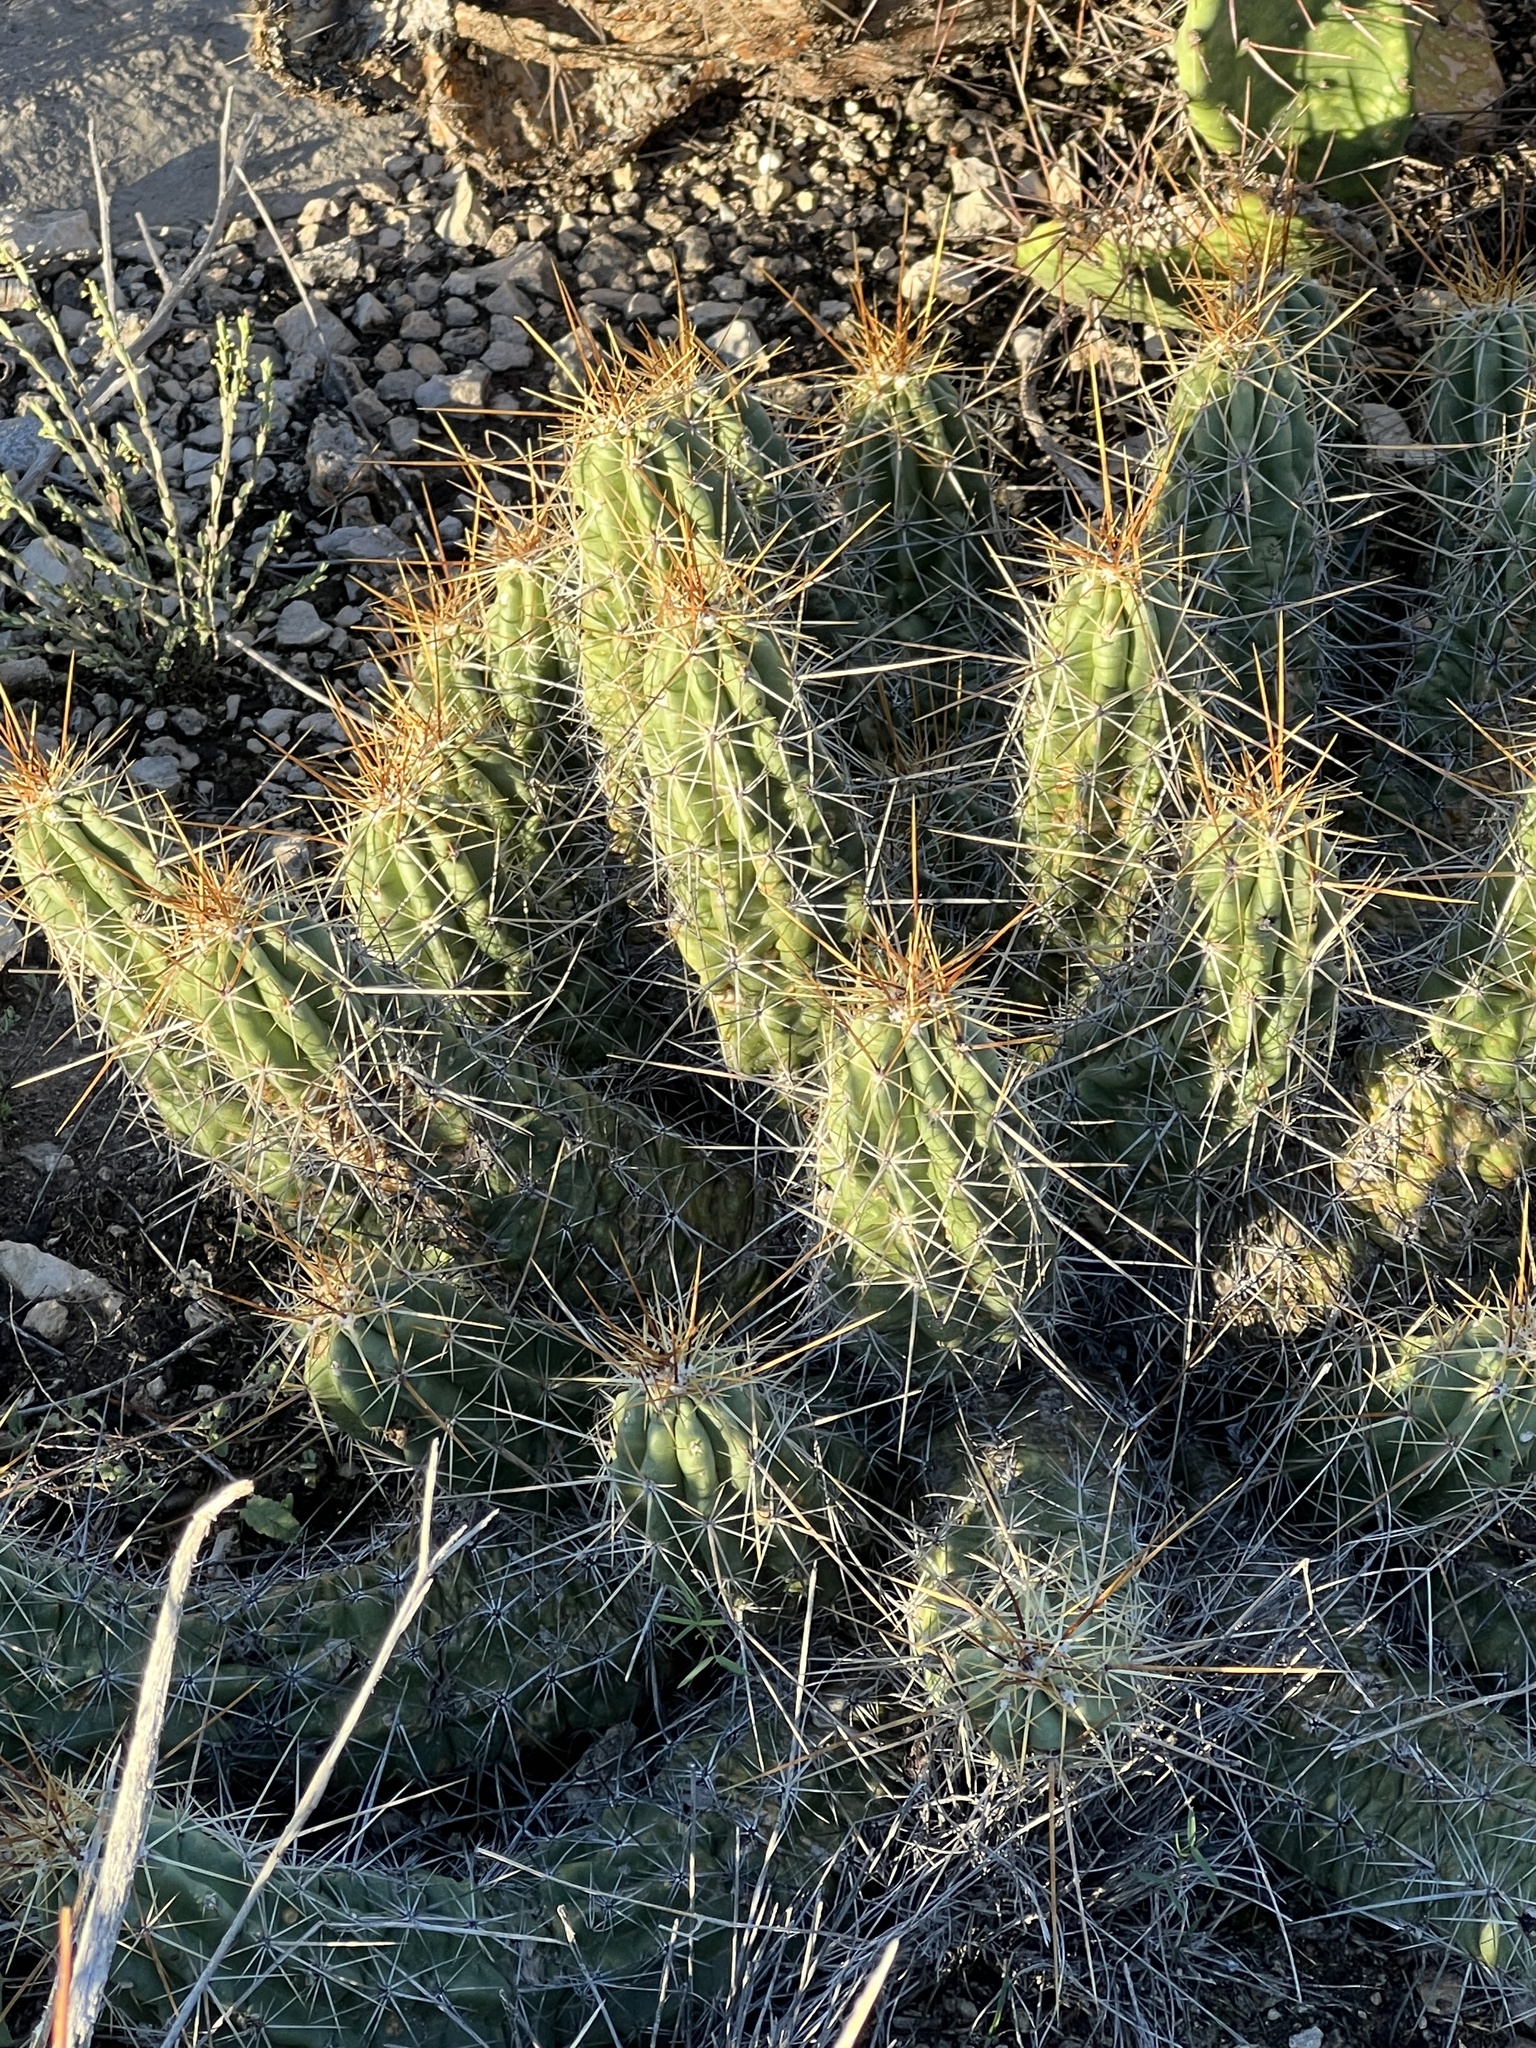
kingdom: Plantae
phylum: Tracheophyta
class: Magnoliopsida
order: Caryophyllales
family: Cactaceae
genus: Echinocereus
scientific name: Echinocereus enneacanthus
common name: Pitaya
